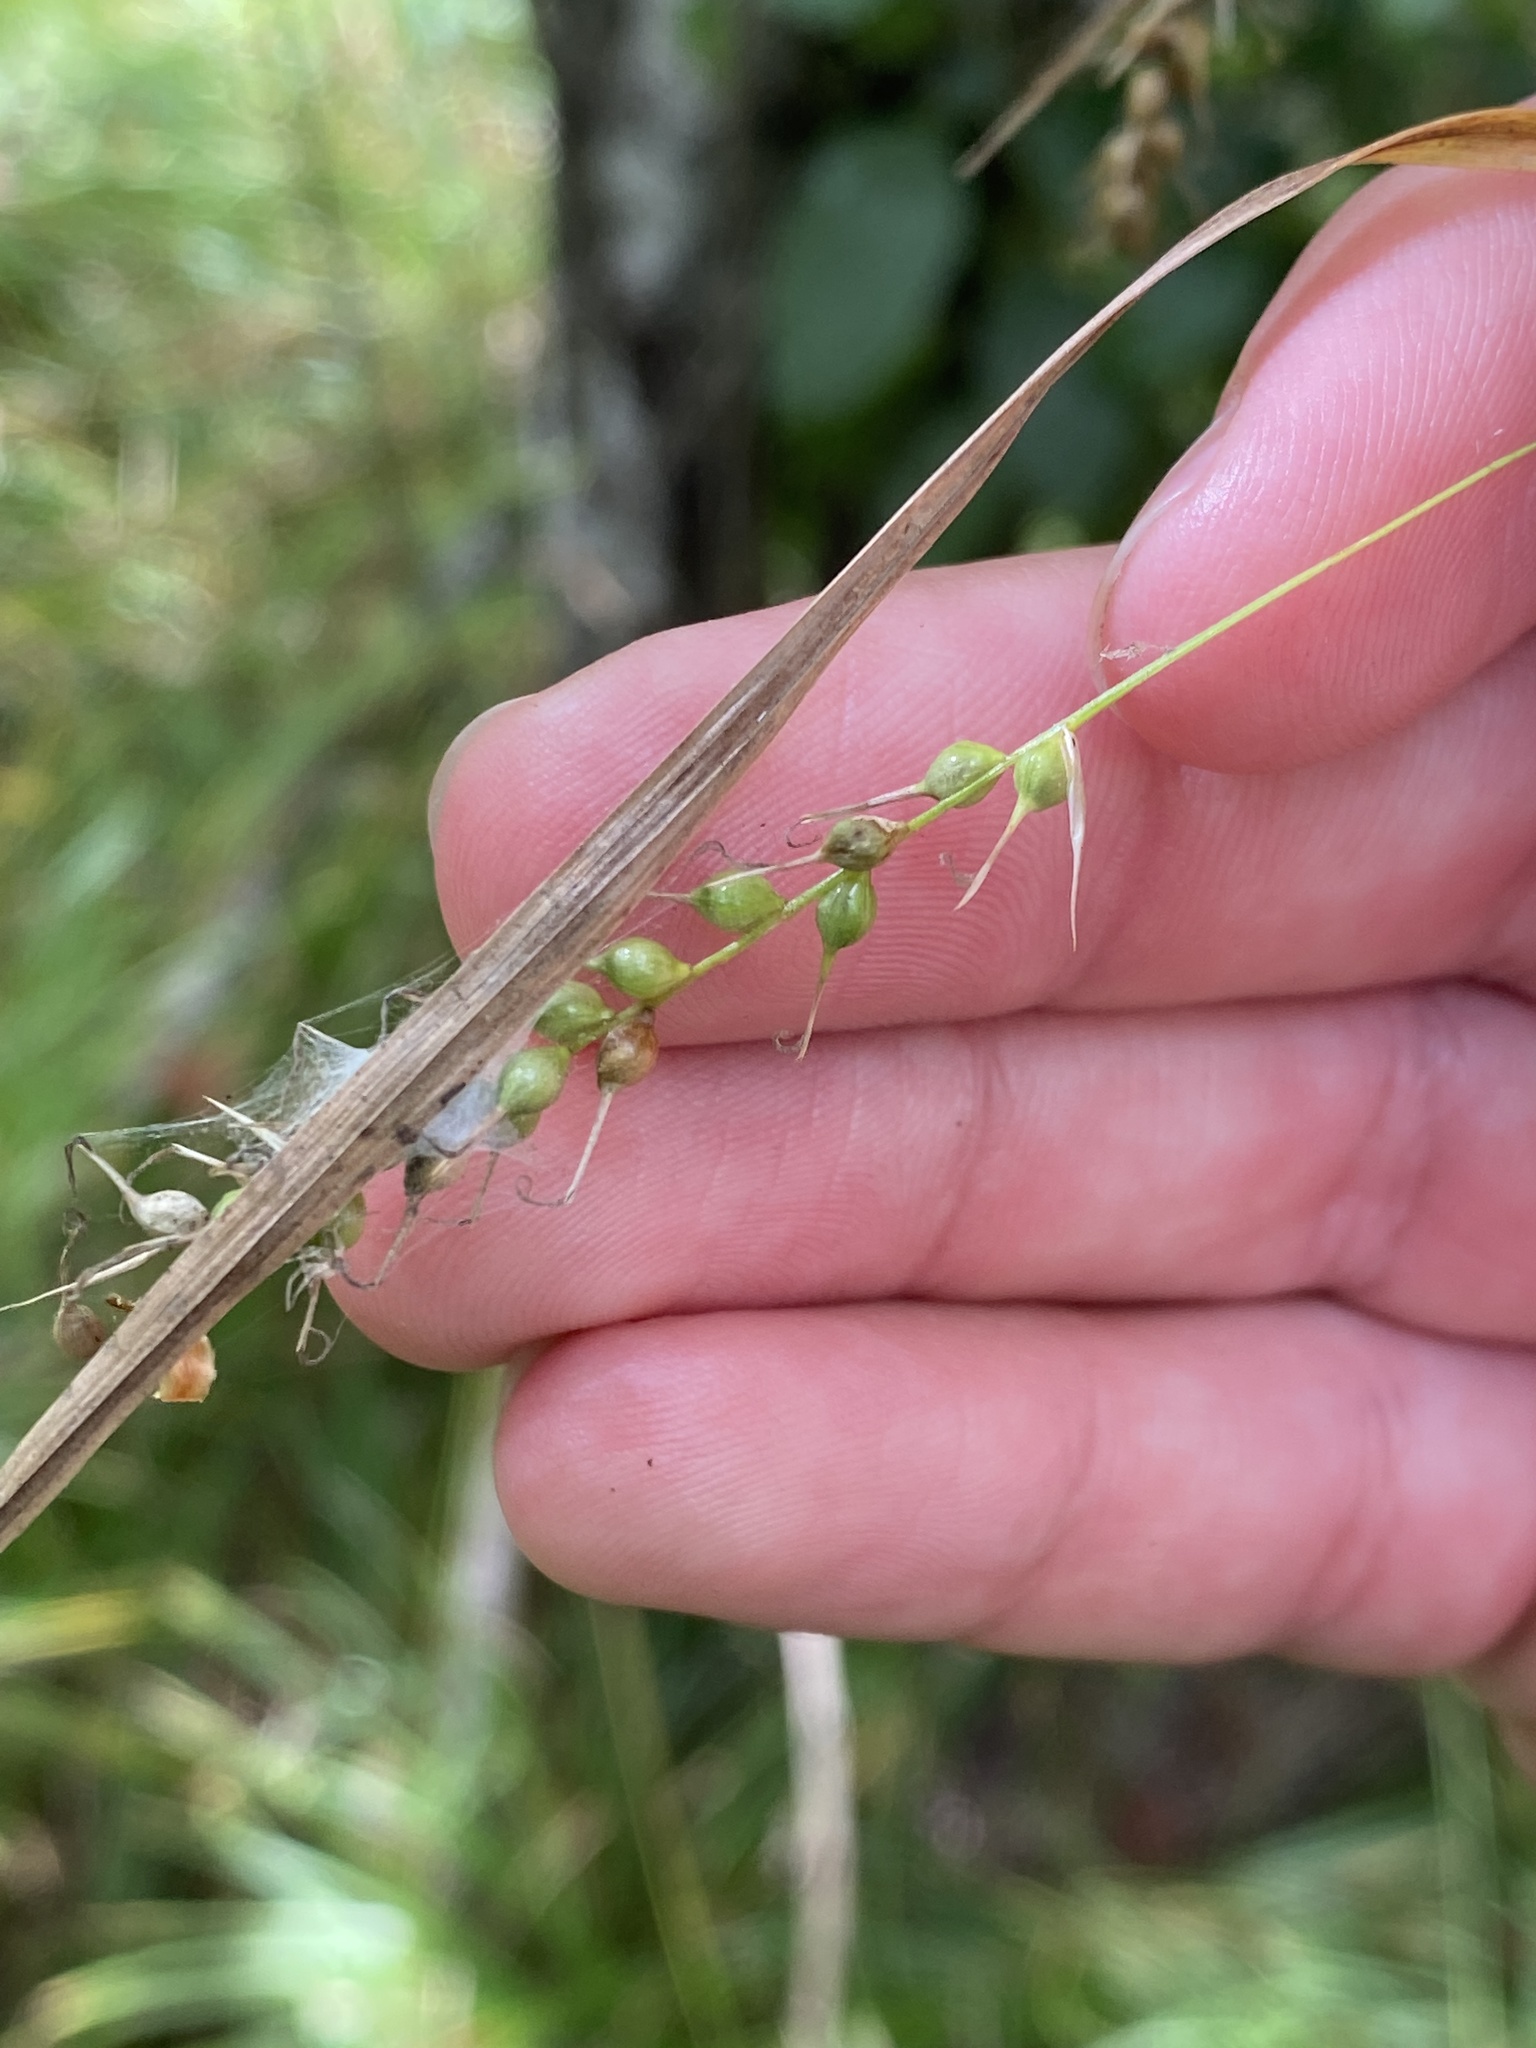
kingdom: Plantae
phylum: Tracheophyta
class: Liliopsida
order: Poales
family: Cyperaceae
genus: Carex
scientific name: Carex sprengelii
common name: Long-beaked sedge
